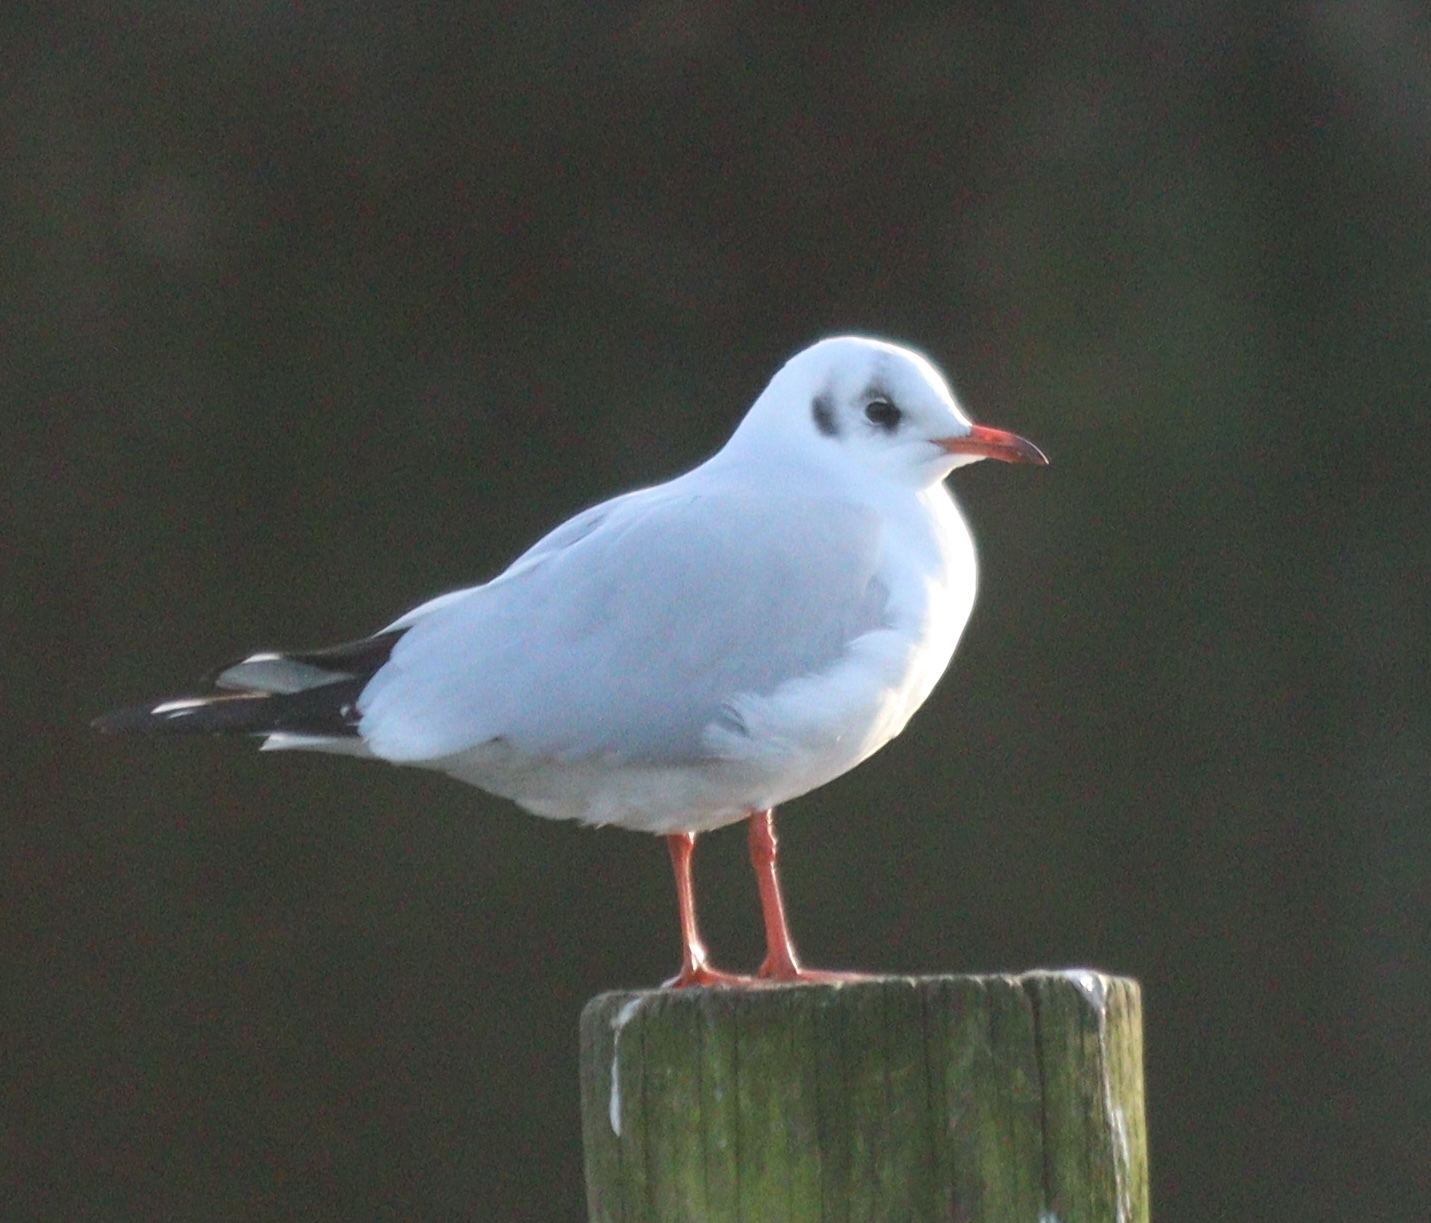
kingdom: Animalia
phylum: Chordata
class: Aves
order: Charadriiformes
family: Laridae
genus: Chroicocephalus
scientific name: Chroicocephalus ridibundus
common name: Black-headed gull
